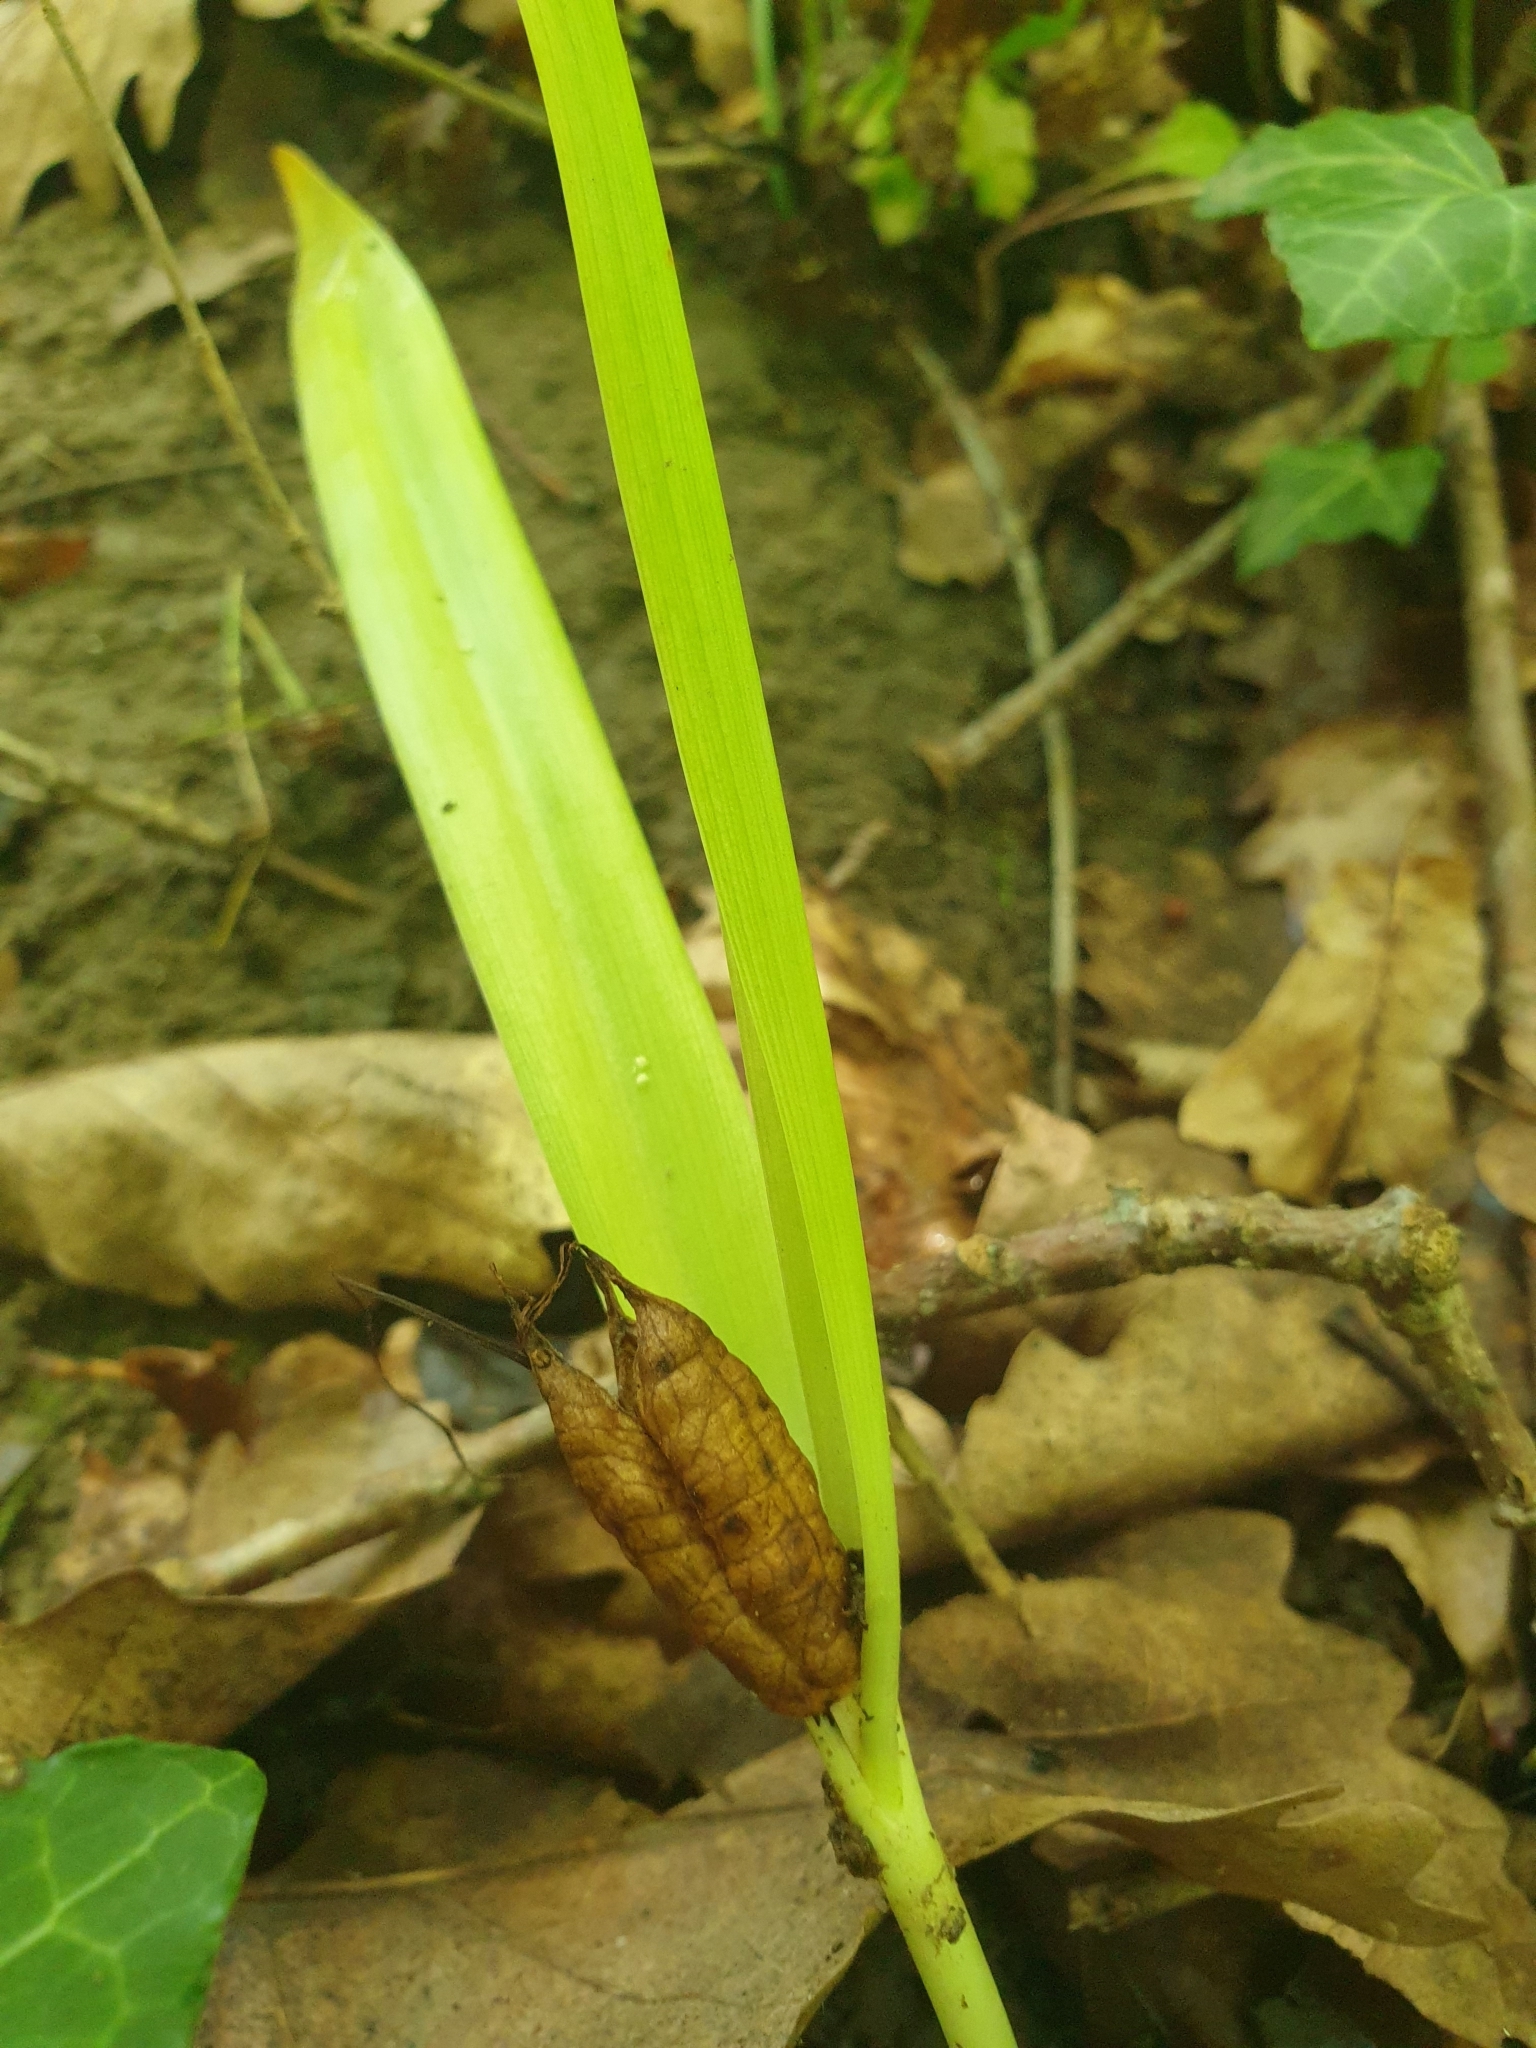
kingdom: Plantae
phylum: Tracheophyta
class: Liliopsida
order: Liliales
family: Colchicaceae
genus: Colchicum
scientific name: Colchicum umbrosum
